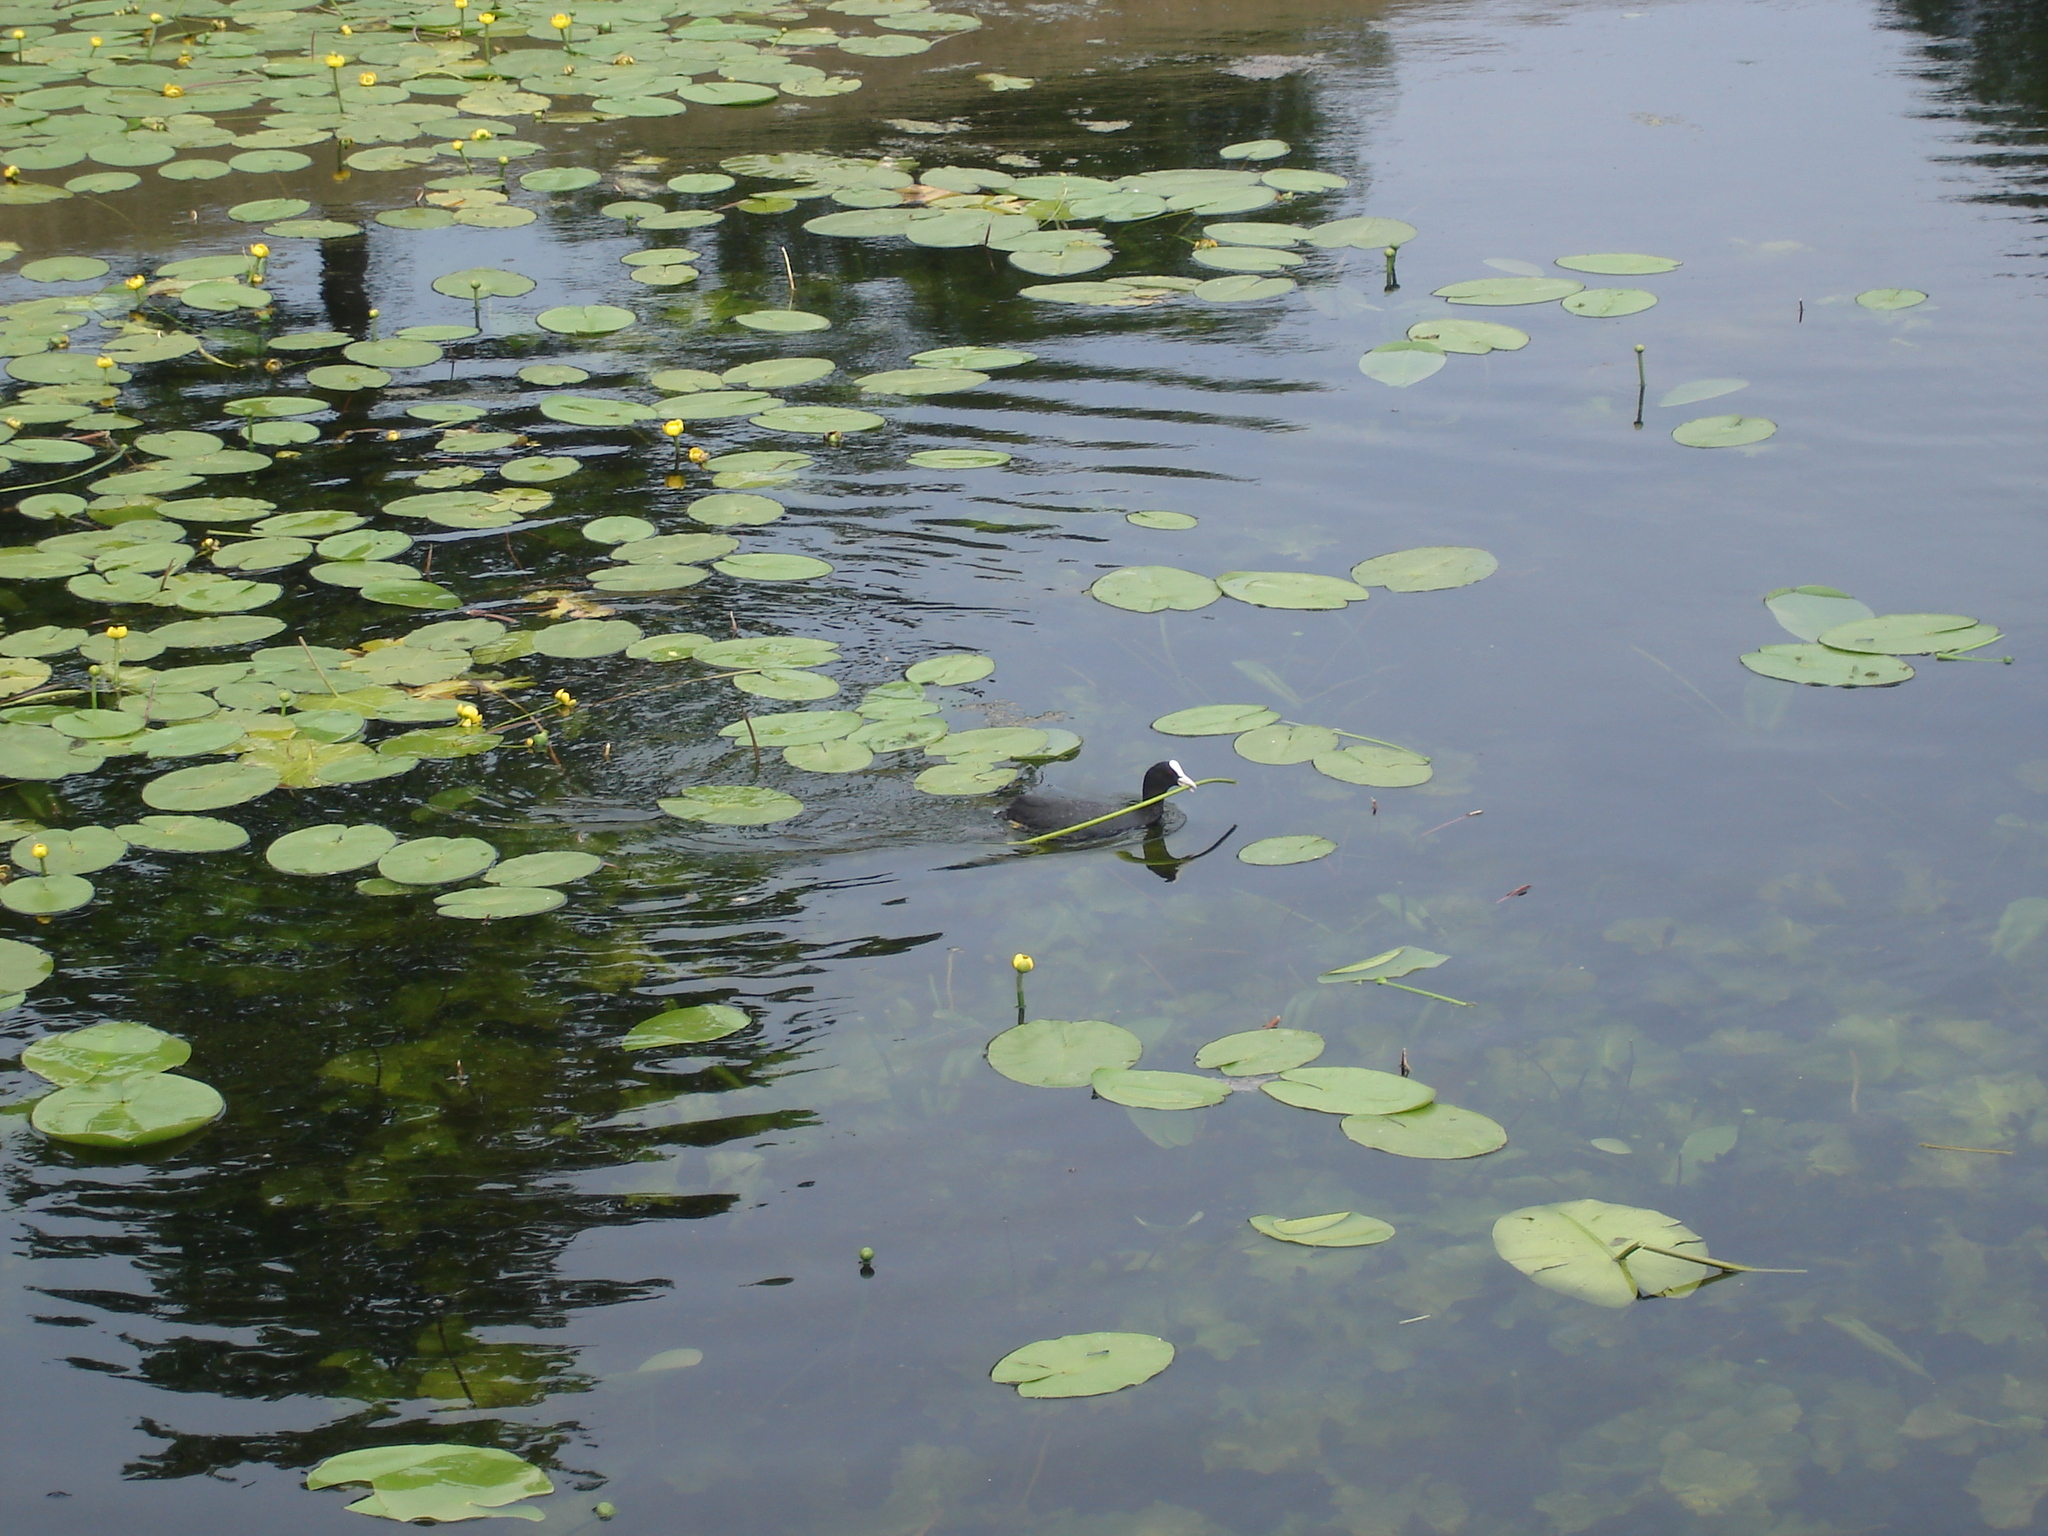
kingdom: Plantae
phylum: Tracheophyta
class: Magnoliopsida
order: Nymphaeales
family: Nymphaeaceae
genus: Nuphar
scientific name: Nuphar lutea
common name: Yellow water-lily
